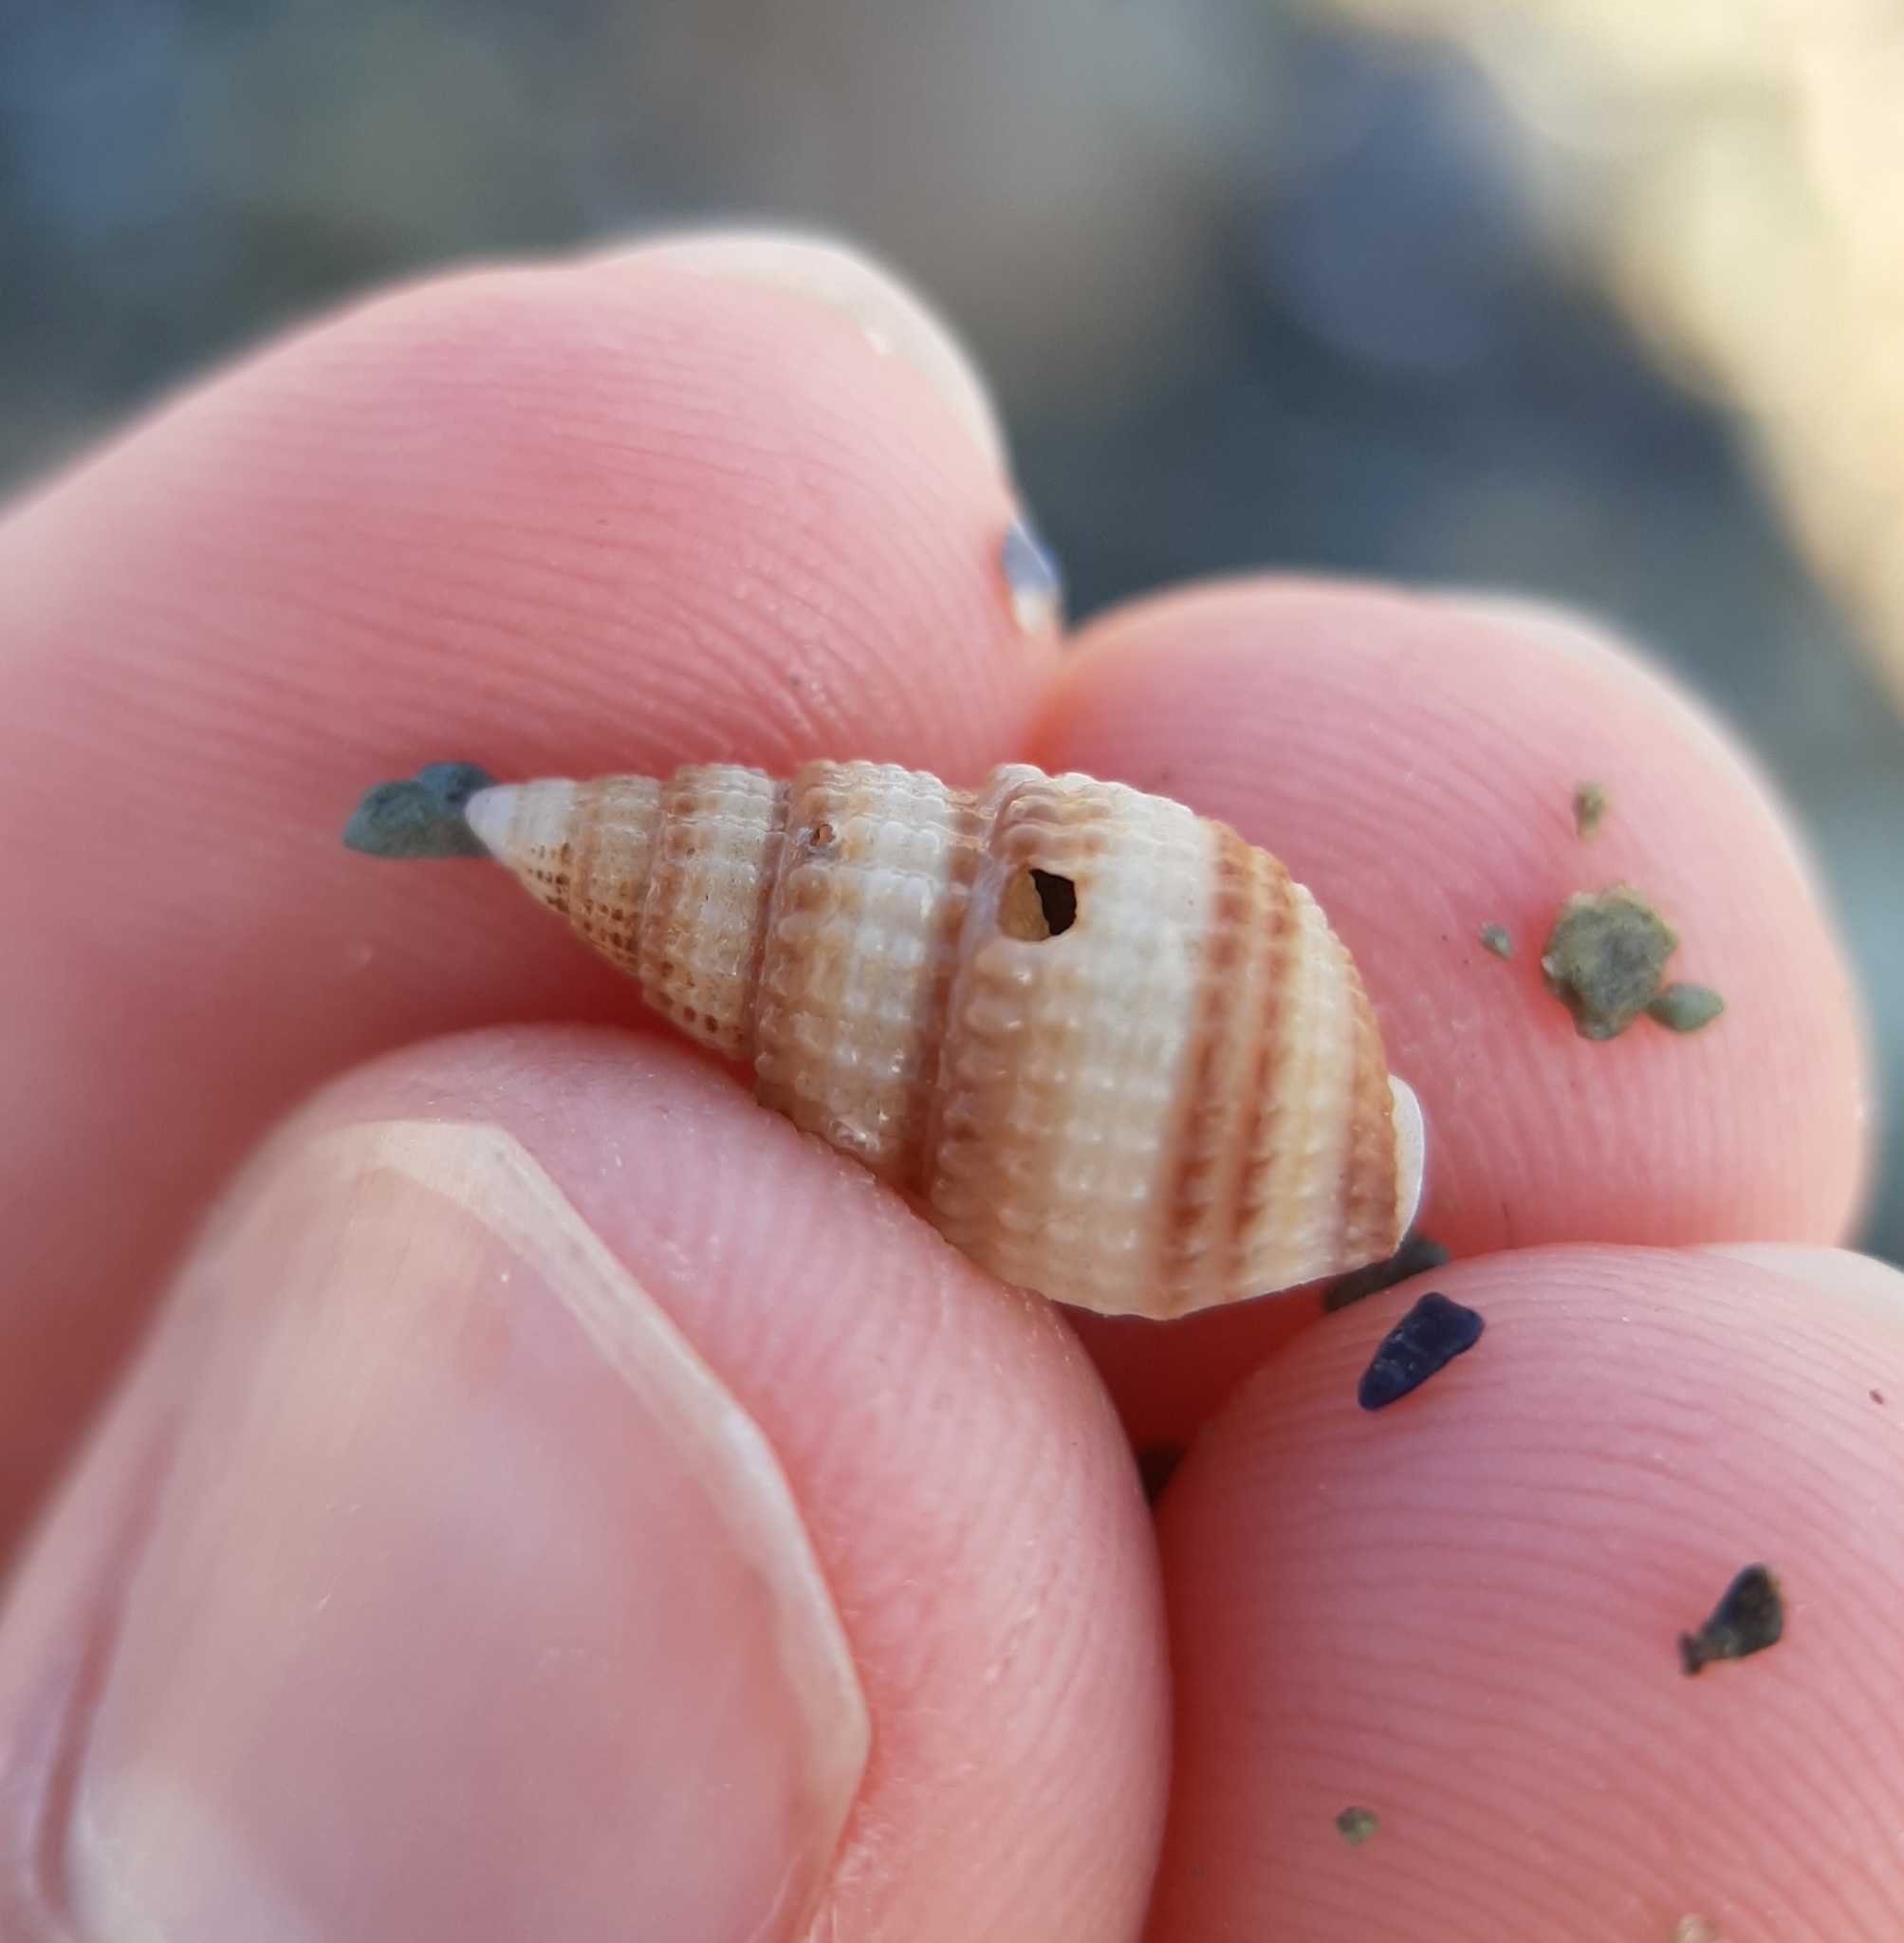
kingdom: Animalia
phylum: Mollusca
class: Gastropoda
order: Neogastropoda
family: Nassariidae
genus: Ilyanassa
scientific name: Ilyanassa trivittata
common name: Three-line mudsnail
